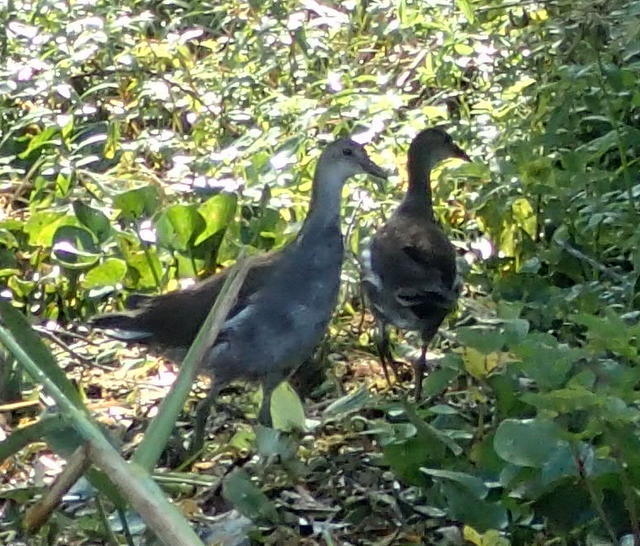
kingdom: Animalia
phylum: Chordata
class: Aves
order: Gruiformes
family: Rallidae
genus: Gallinula
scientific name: Gallinula chloropus
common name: Common moorhen
